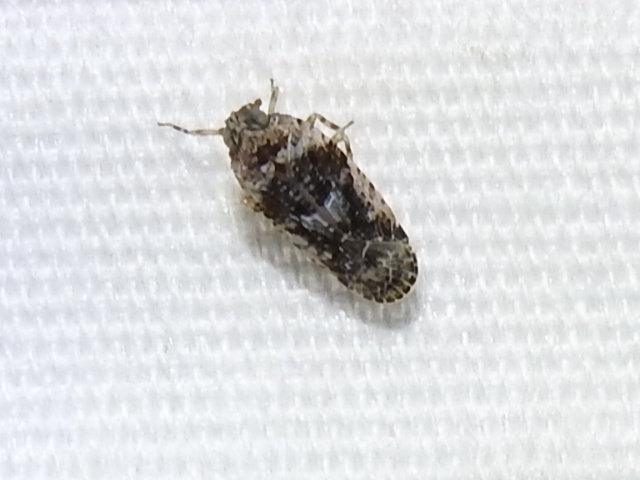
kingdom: Animalia
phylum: Arthropoda
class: Insecta
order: Hemiptera
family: Achilidae
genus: Catonia
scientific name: Catonia nava
